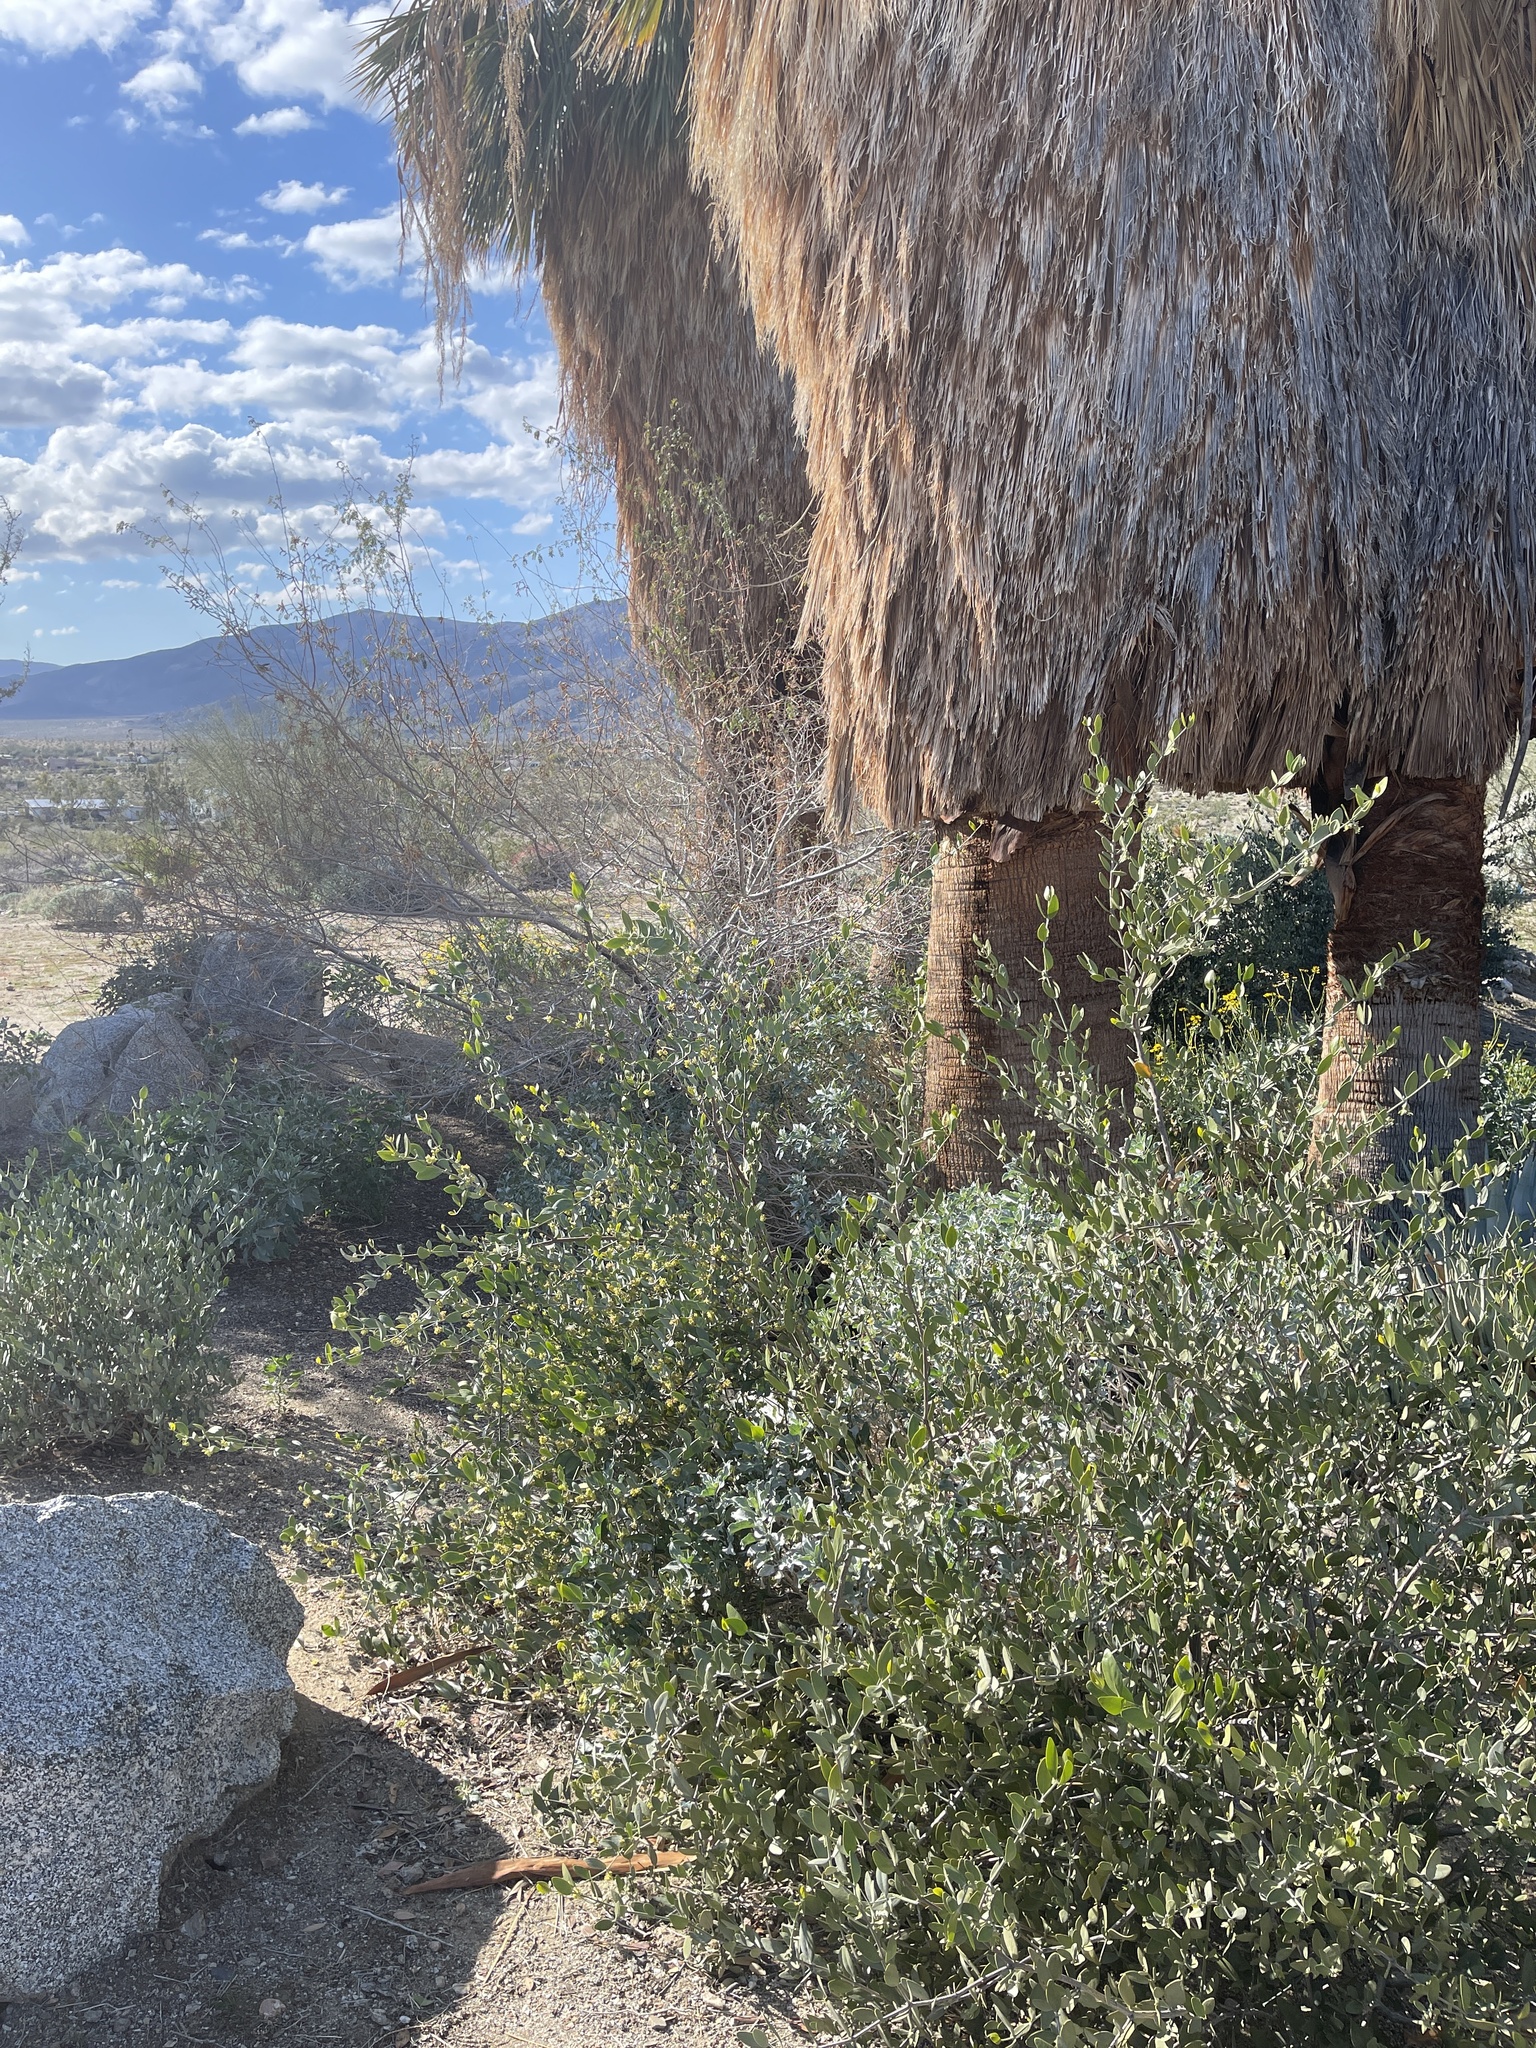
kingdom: Plantae
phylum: Tracheophyta
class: Magnoliopsida
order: Caryophyllales
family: Simmondsiaceae
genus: Simmondsia
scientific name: Simmondsia chinensis
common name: Jojoba
